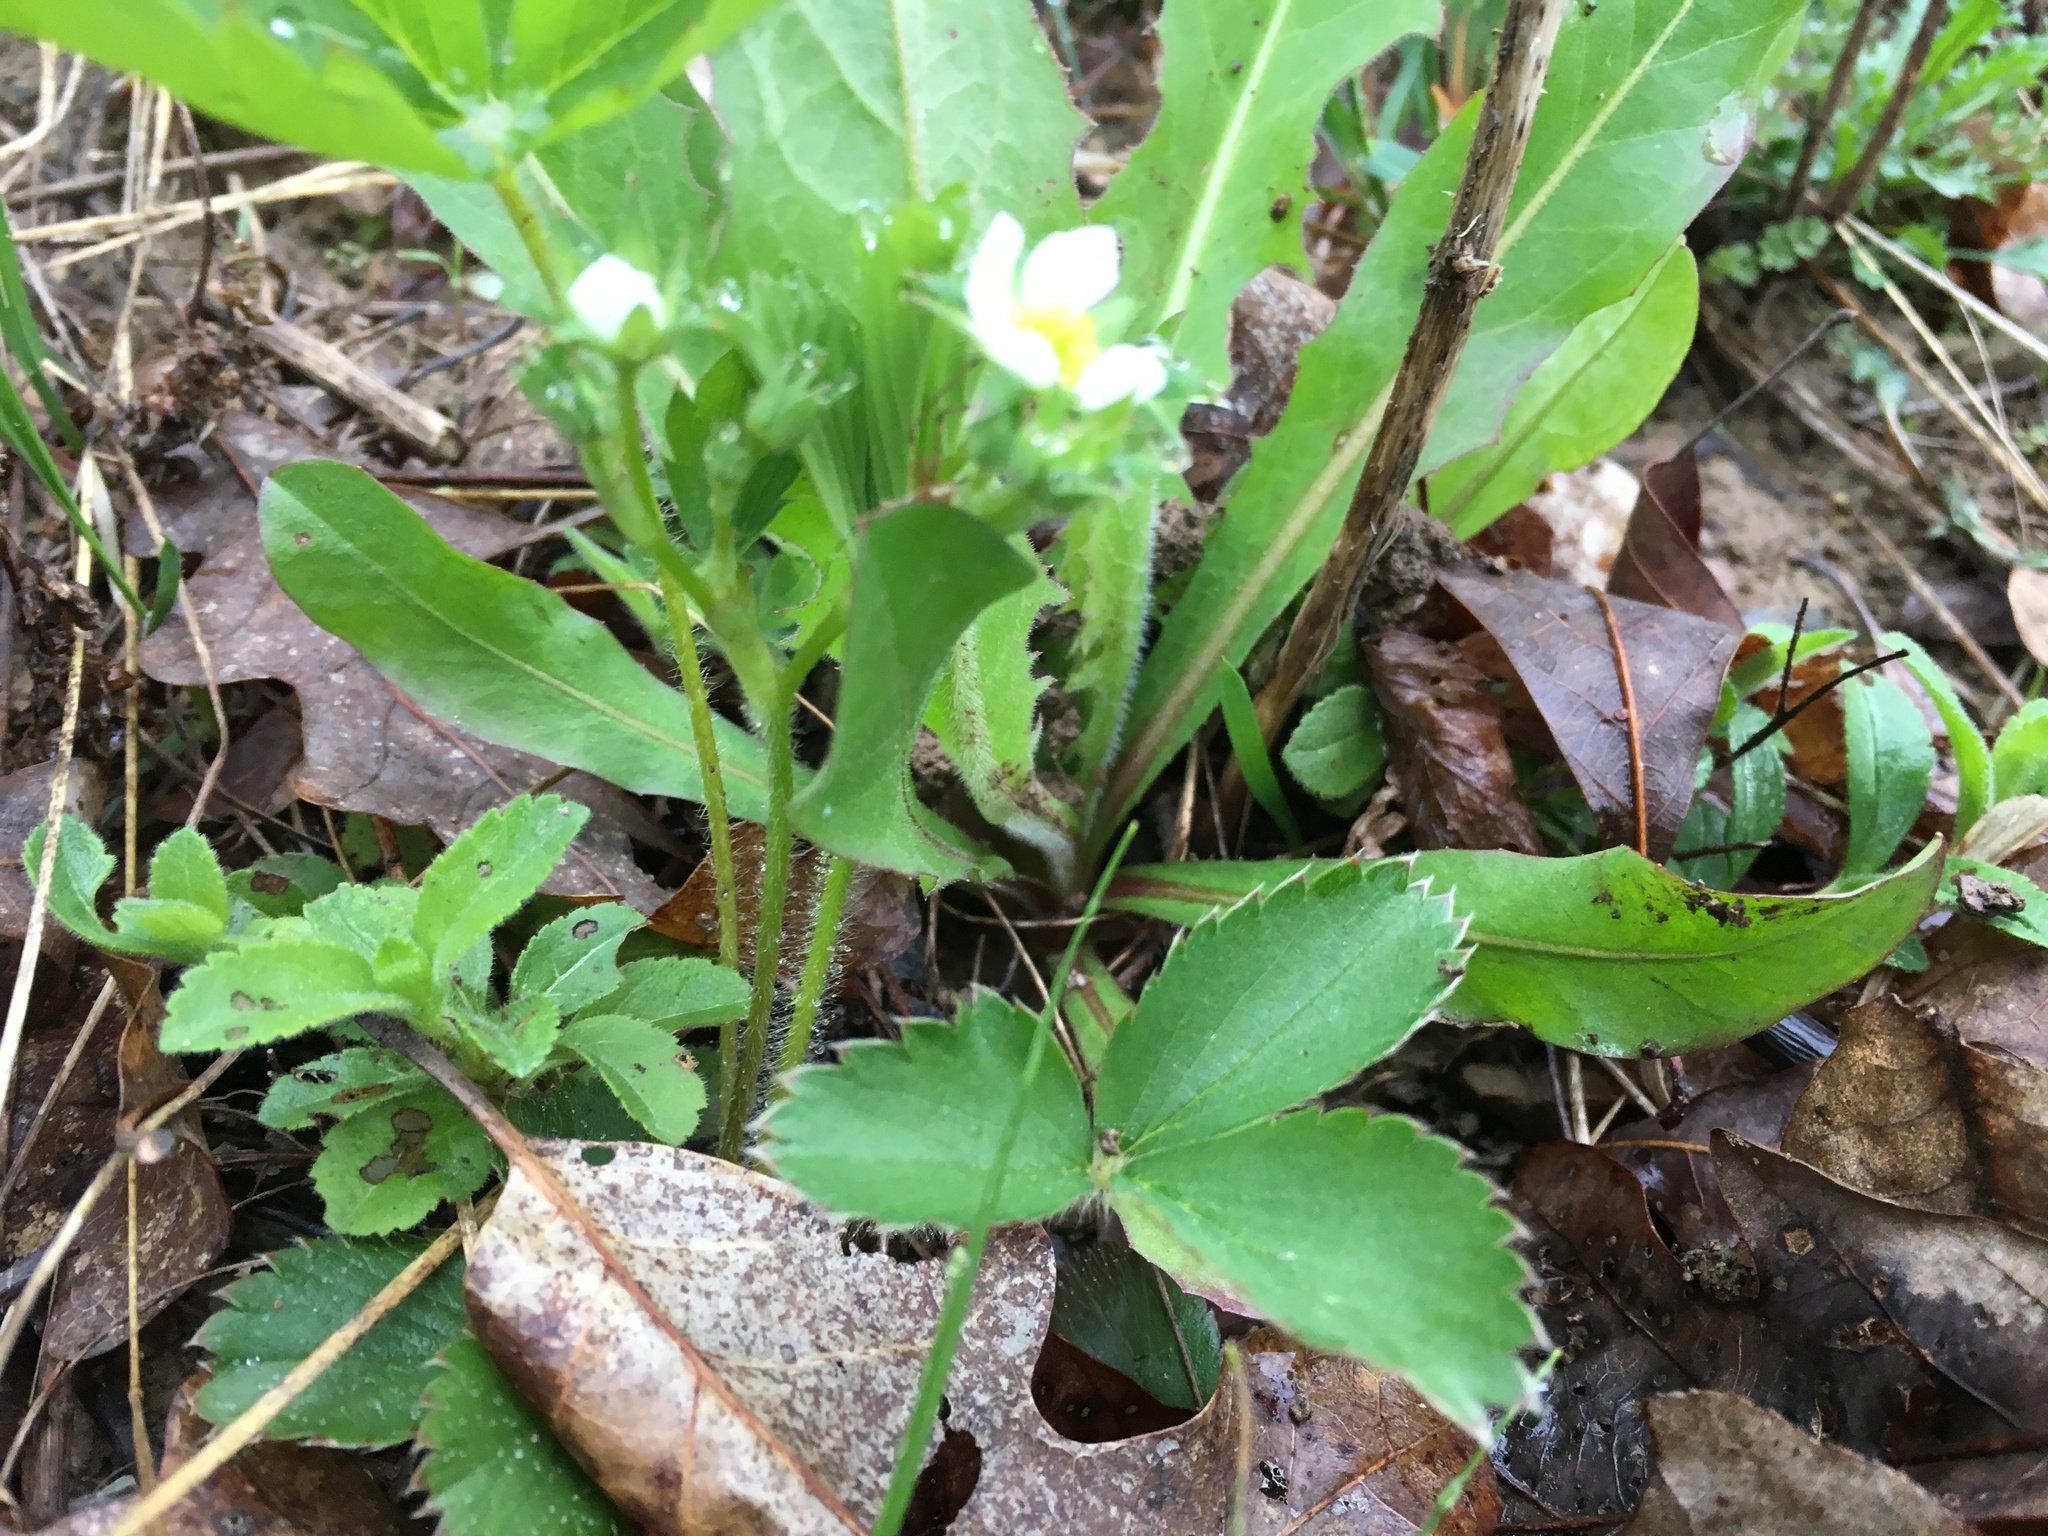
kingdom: Plantae
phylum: Tracheophyta
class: Magnoliopsida
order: Rosales
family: Rosaceae
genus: Fragaria
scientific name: Fragaria virginiana
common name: Thickleaved wild strawberry
